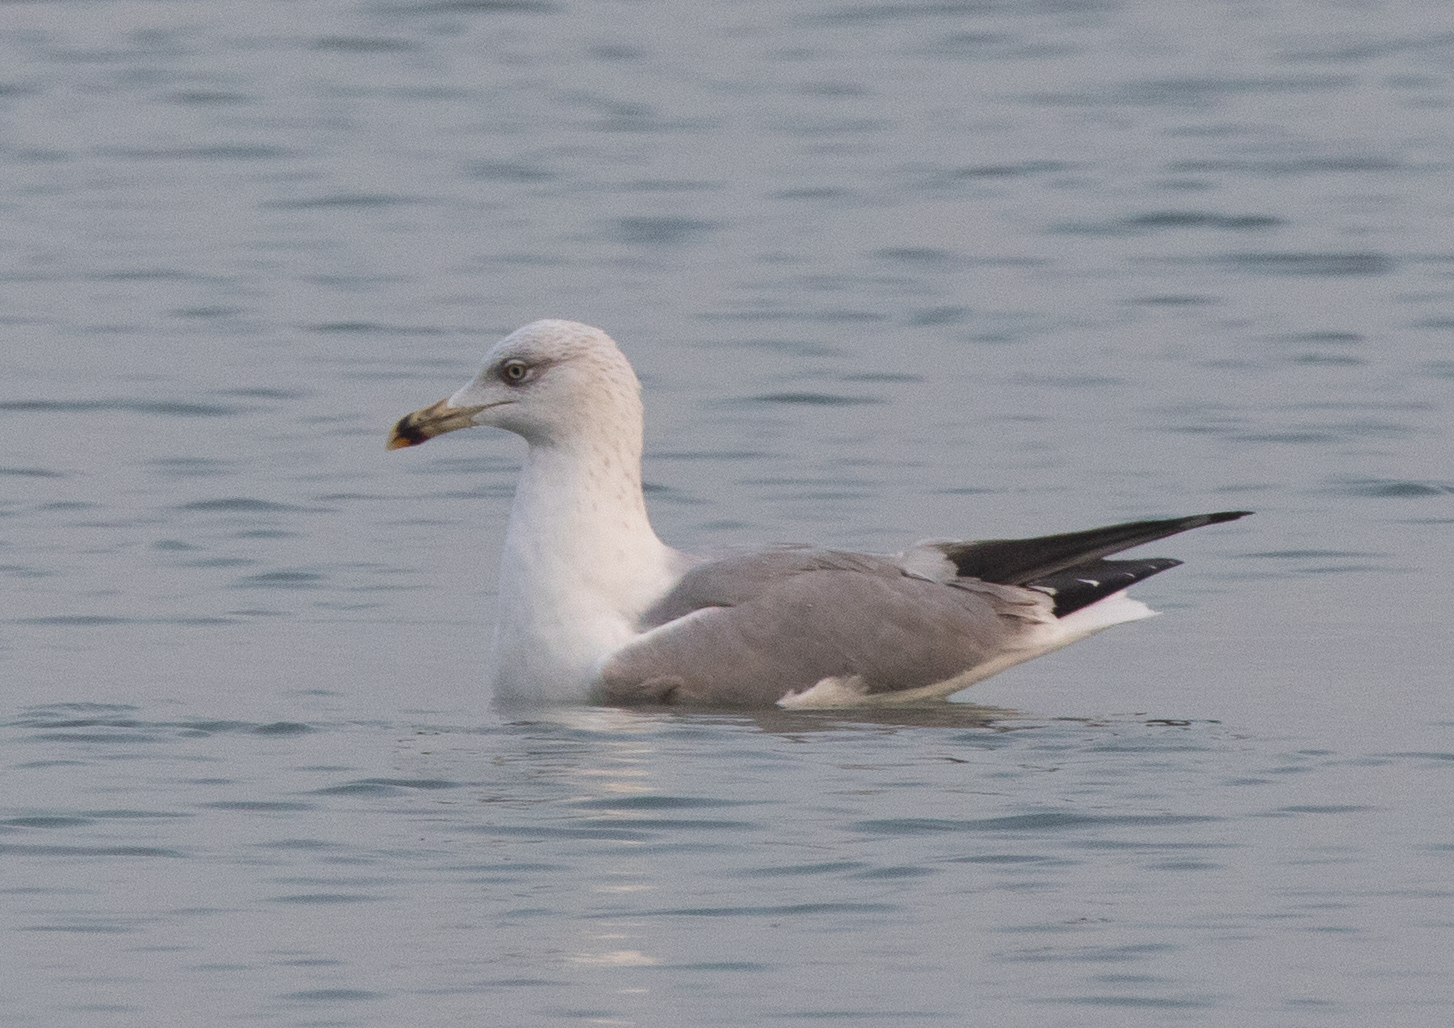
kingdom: Animalia
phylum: Chordata
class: Aves
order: Charadriiformes
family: Laridae
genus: Larus
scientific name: Larus michahellis
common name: Yellow-legged gull
